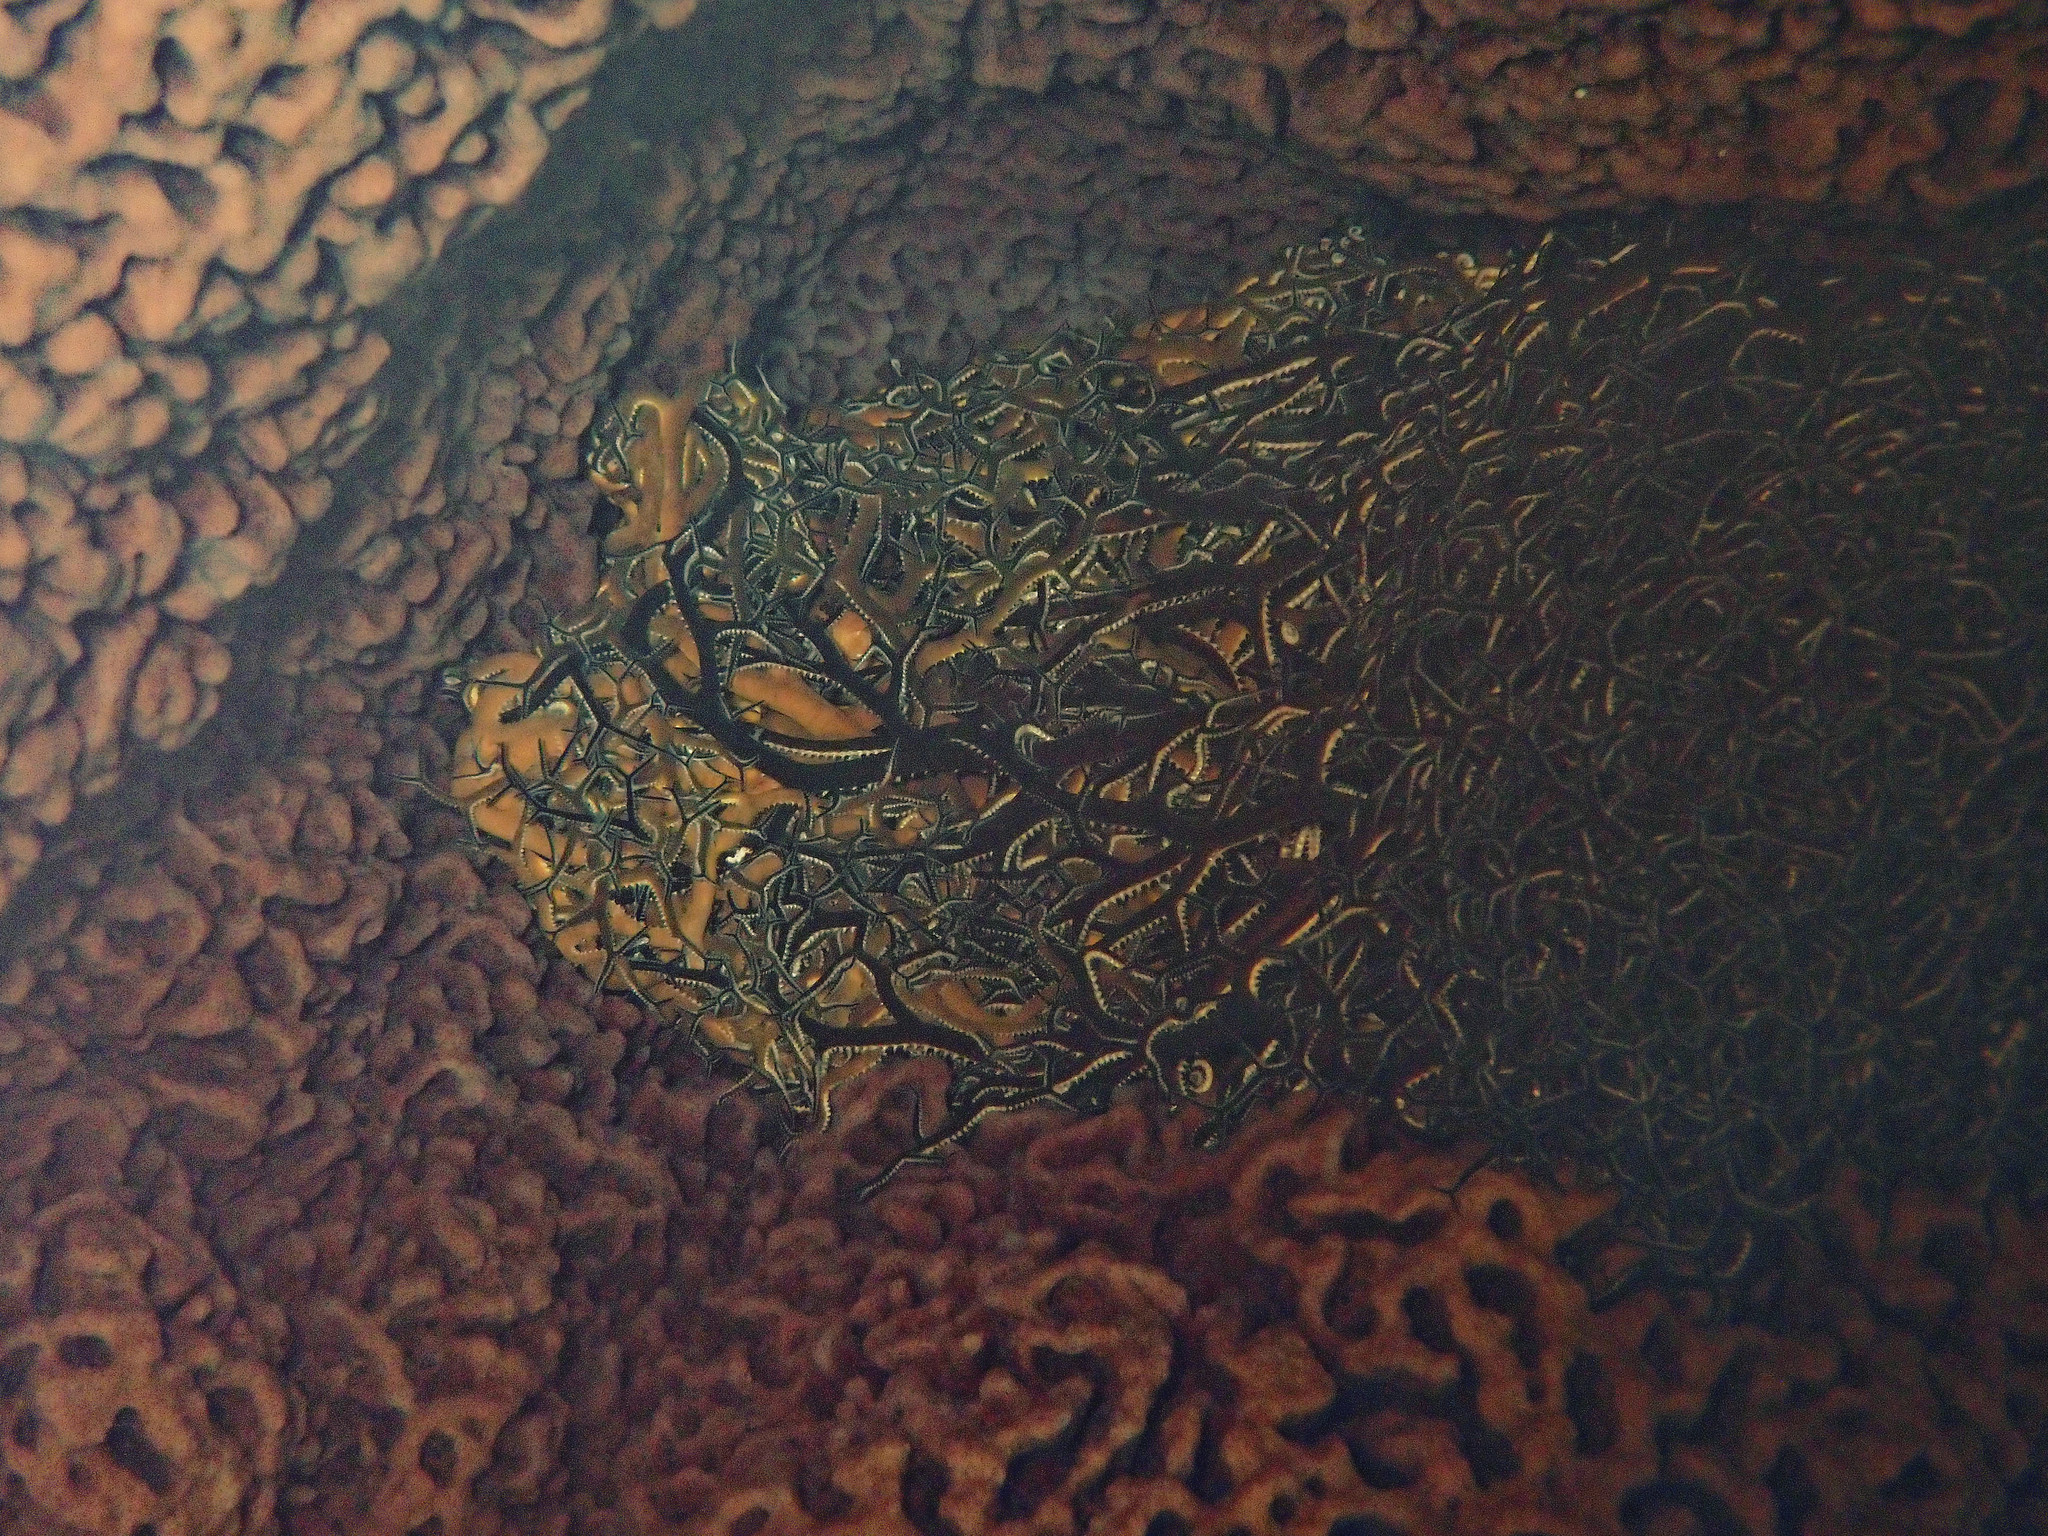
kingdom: Animalia
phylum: Echinodermata
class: Ophiuroidea
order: Euryalida
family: Gorgonocephalidae
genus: Astrophyton
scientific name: Astrophyton muricatum
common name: Basket starfish
